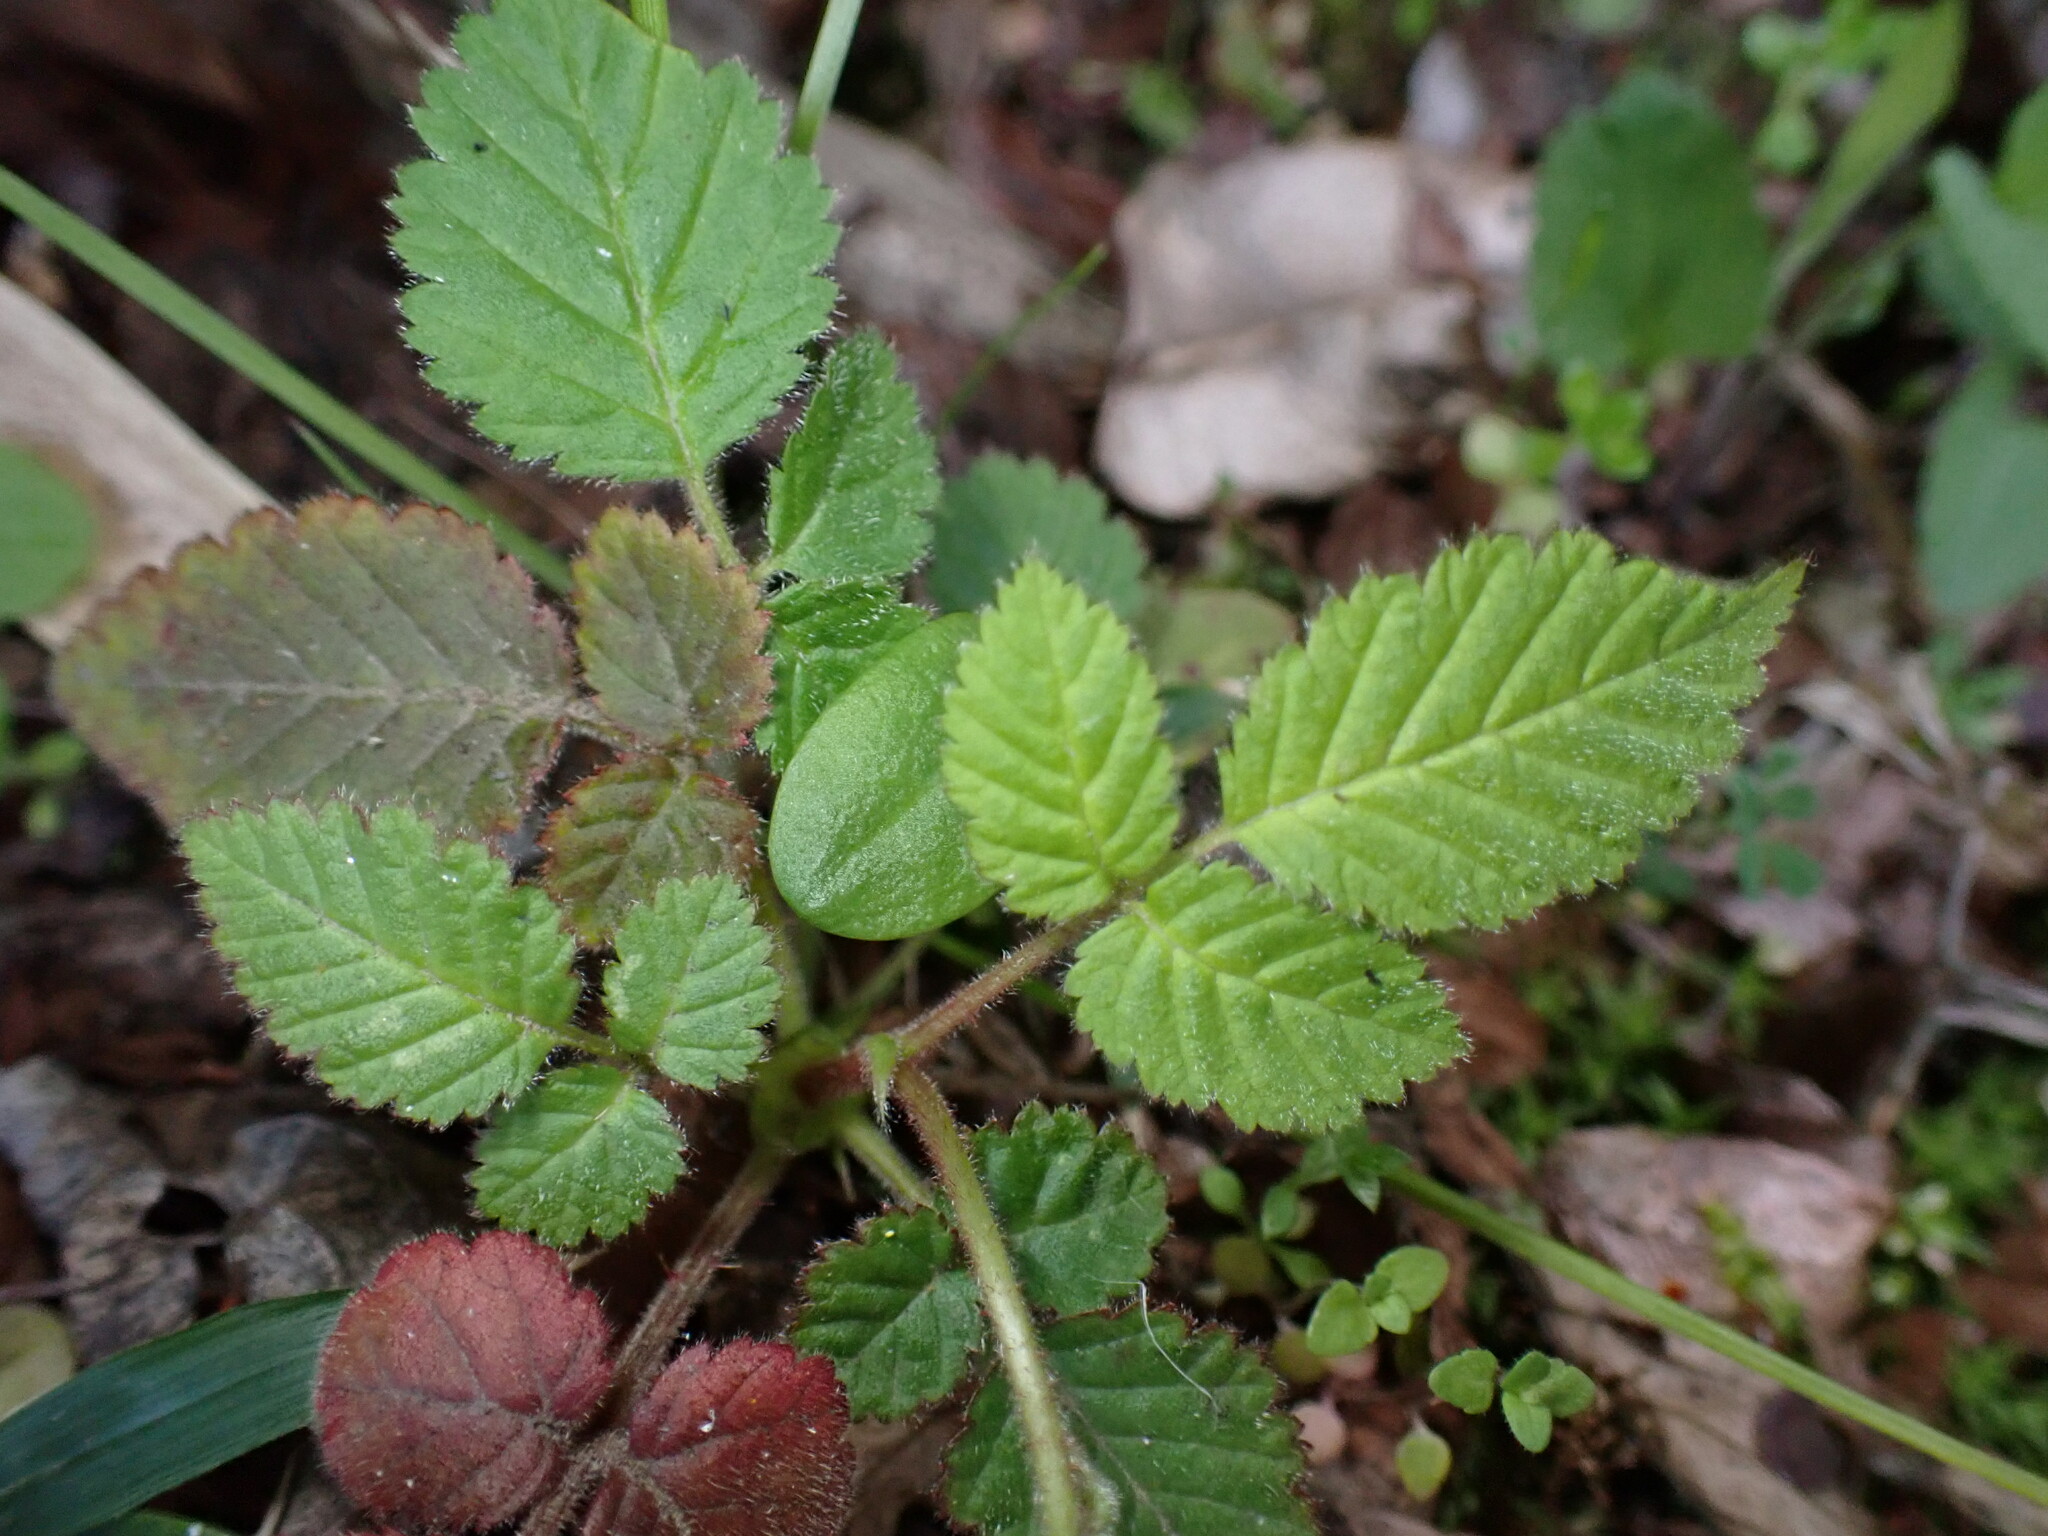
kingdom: Plantae
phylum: Tracheophyta
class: Magnoliopsida
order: Rosales
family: Rosaceae
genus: Rubus
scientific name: Rubus hirsutus
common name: Hirsute raspberry
